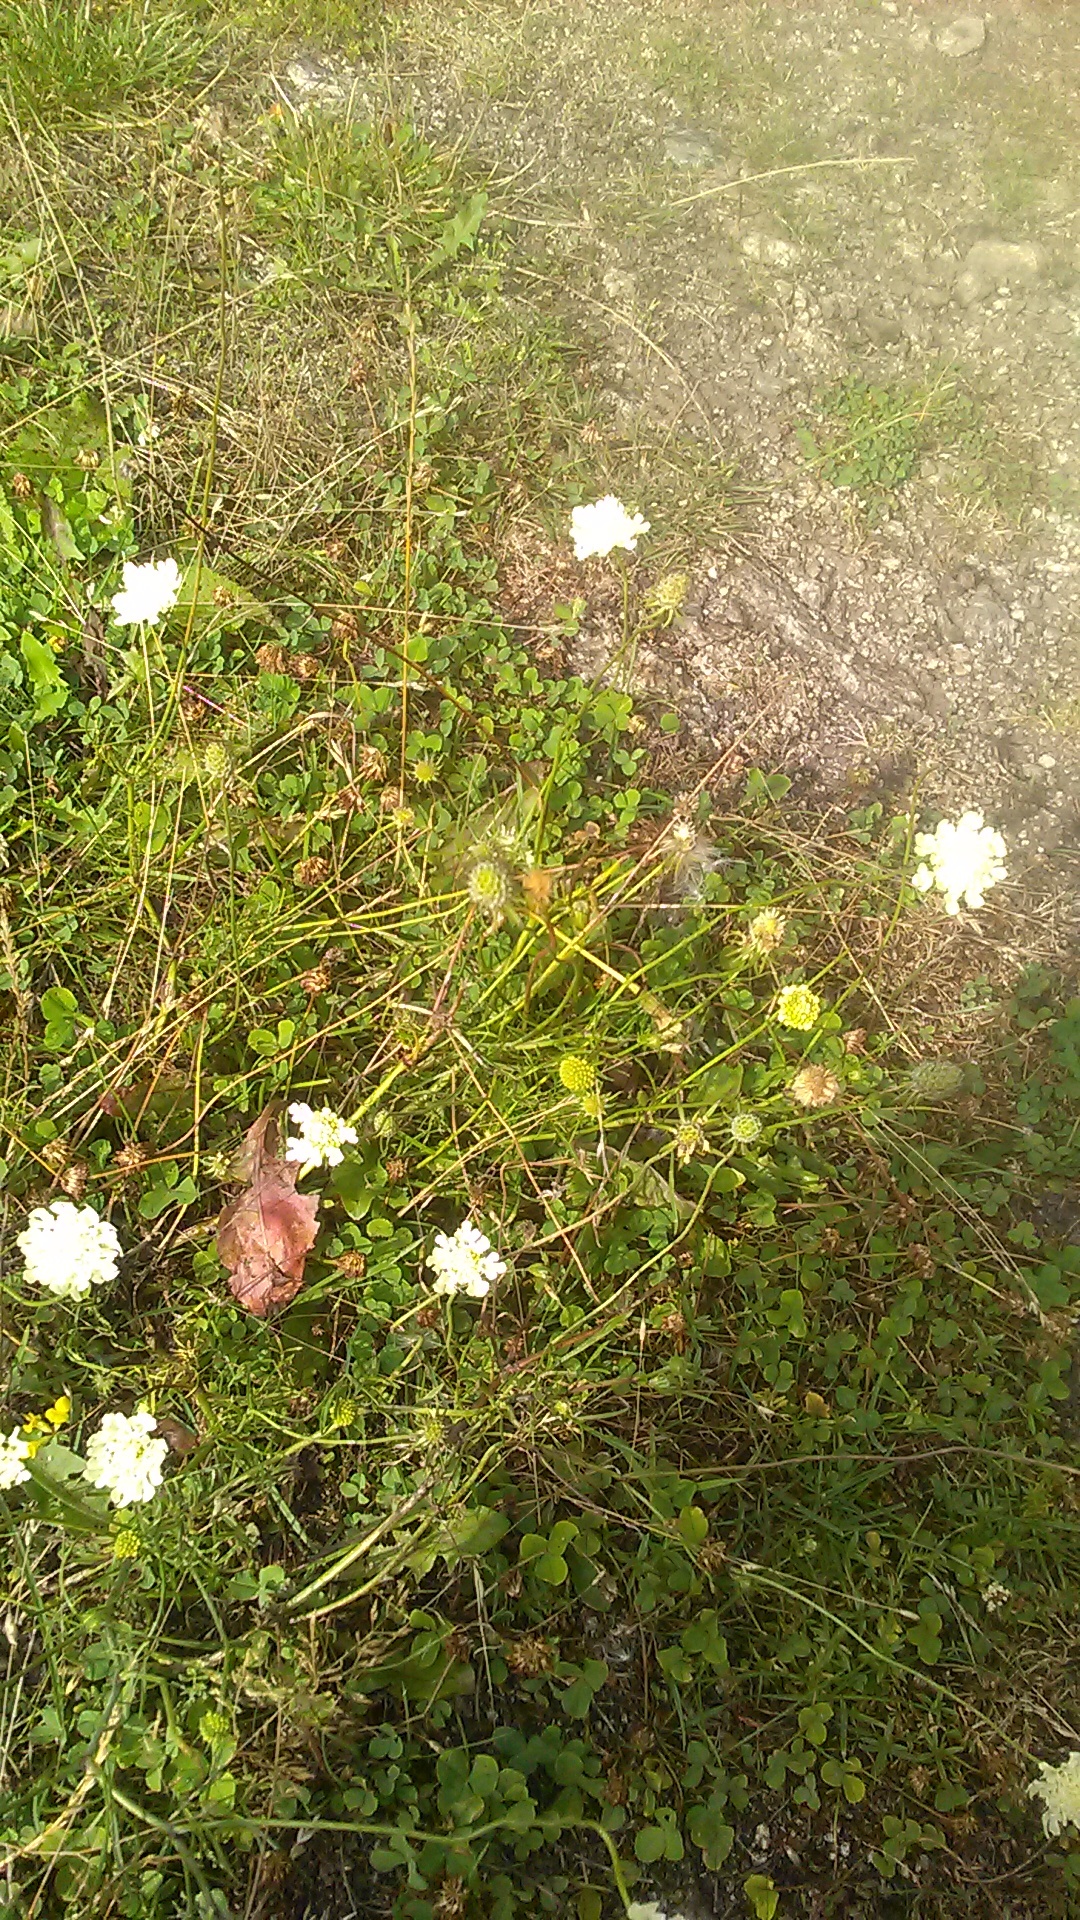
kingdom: Plantae
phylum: Tracheophyta
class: Magnoliopsida
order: Dipsacales
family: Caprifoliaceae
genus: Scabiosa
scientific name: Scabiosa bipinnata
